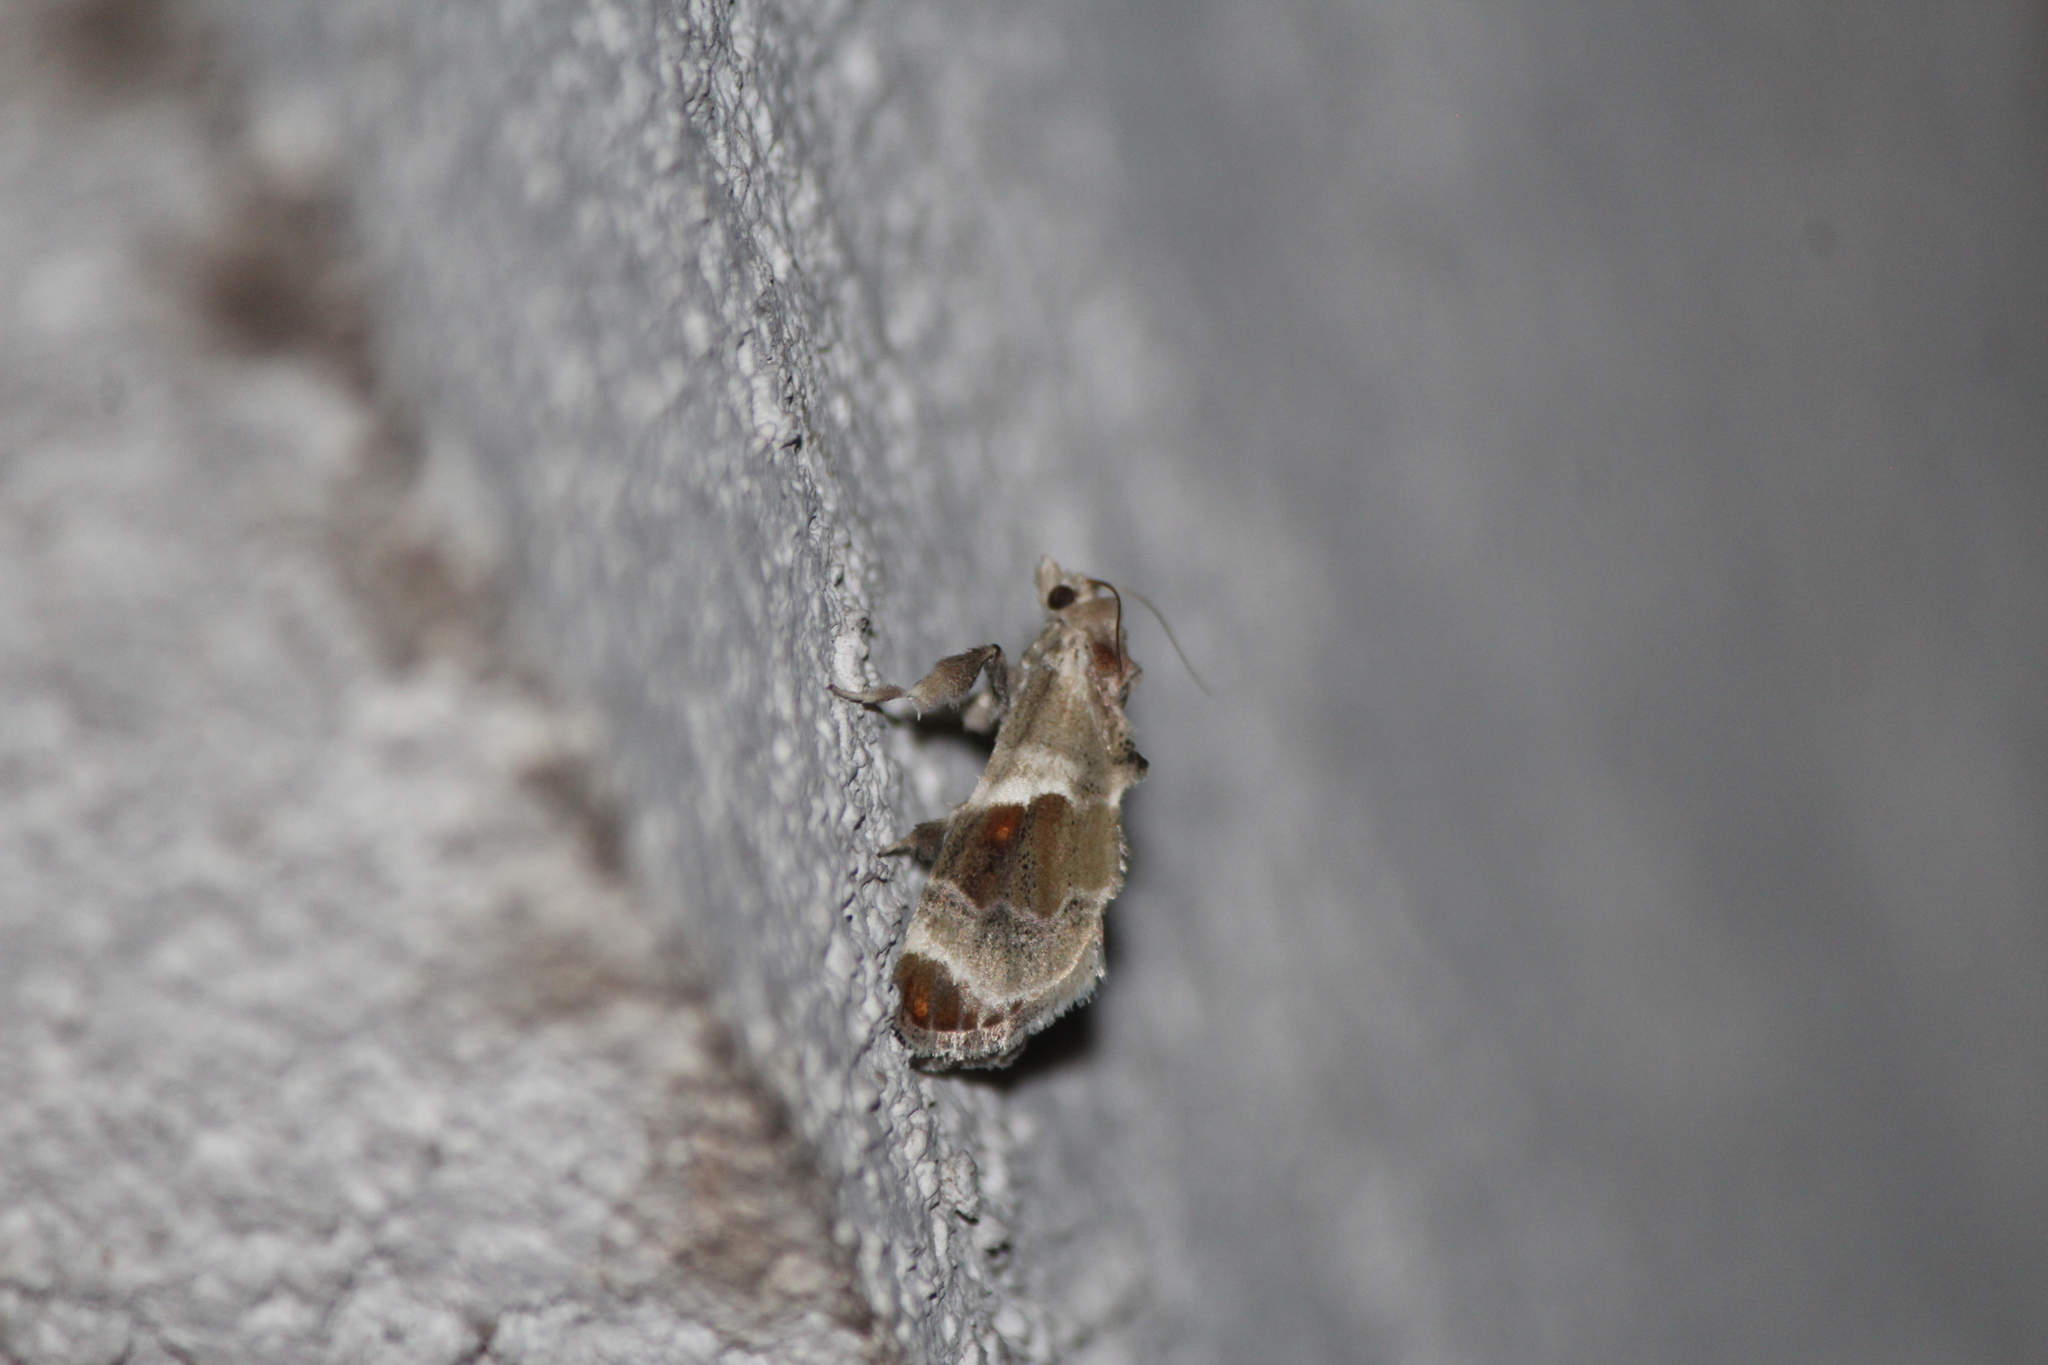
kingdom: Animalia
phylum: Arthropoda
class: Insecta
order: Lepidoptera
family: Pyralidae
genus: Cromarcha
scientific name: Cromarcha
